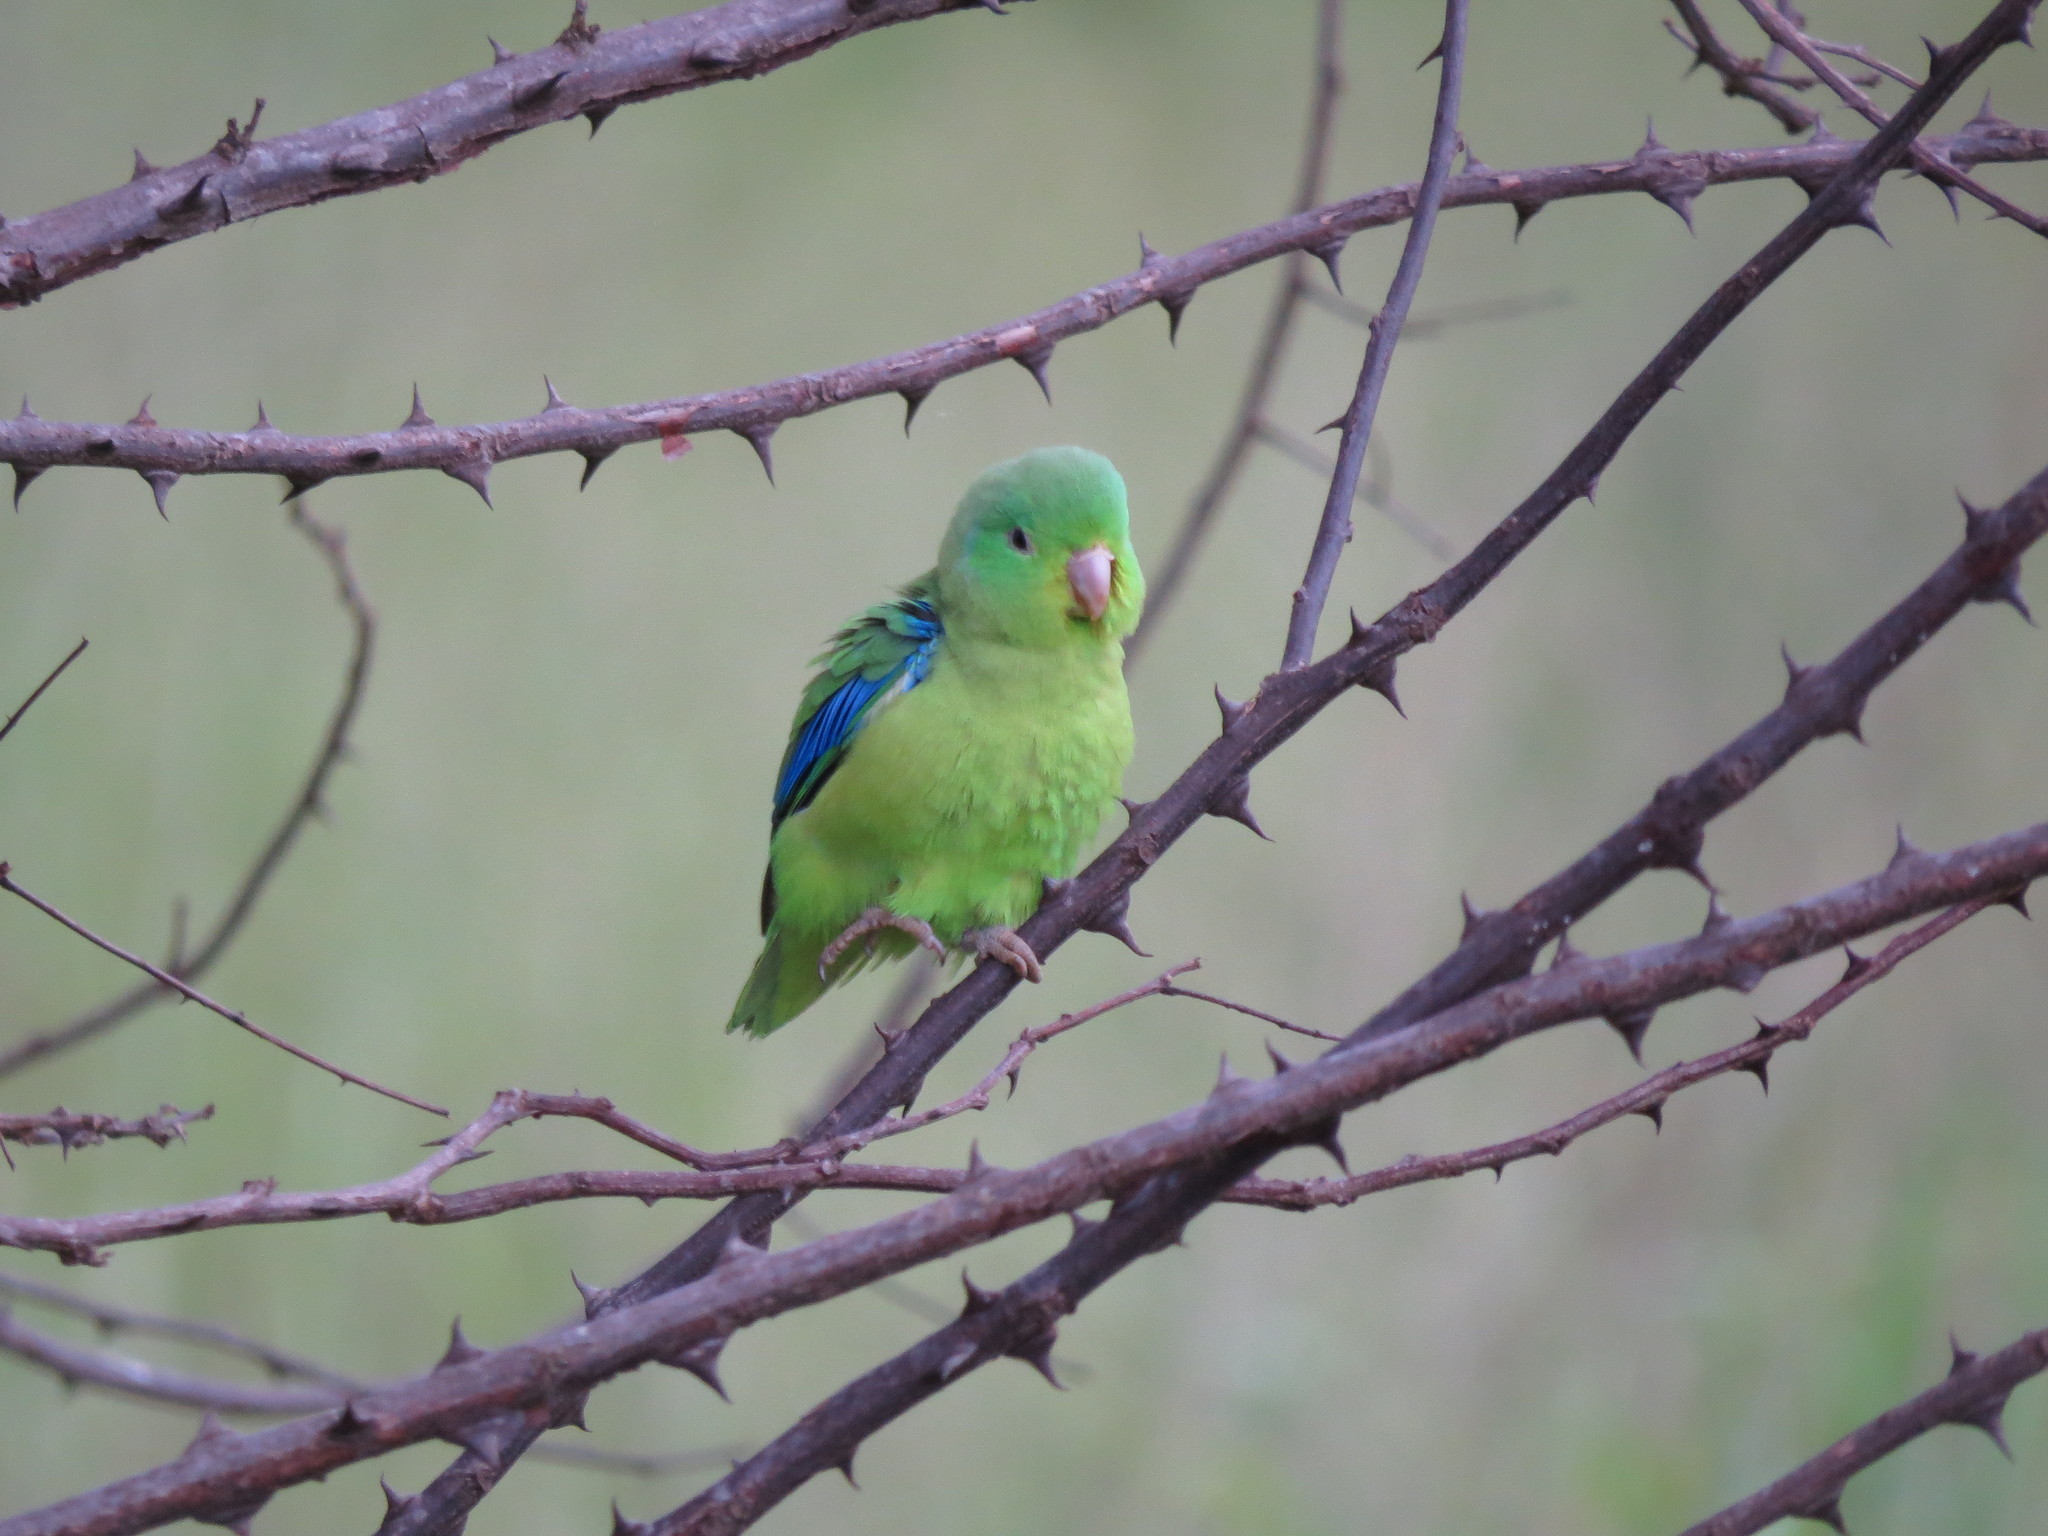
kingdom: Animalia
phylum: Chordata
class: Aves
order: Psittaciformes
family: Psittacidae
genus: Forpus
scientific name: Forpus xanthopterygius
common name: Blue-winged parrotlet
